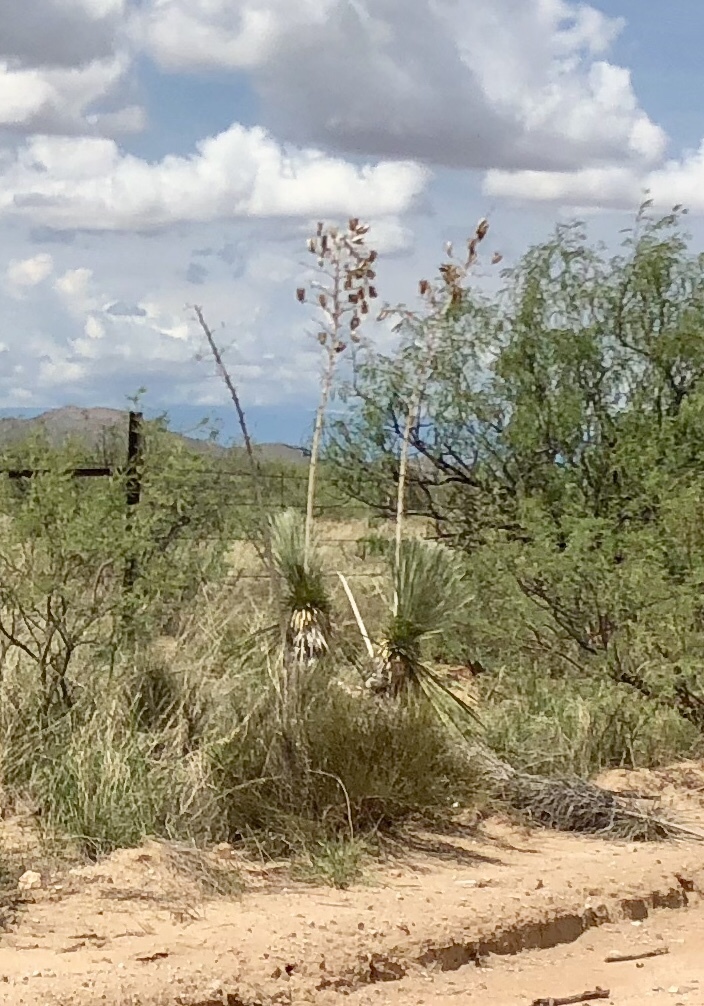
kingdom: Plantae
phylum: Tracheophyta
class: Liliopsida
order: Asparagales
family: Asparagaceae
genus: Yucca
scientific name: Yucca elata
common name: Palmella
